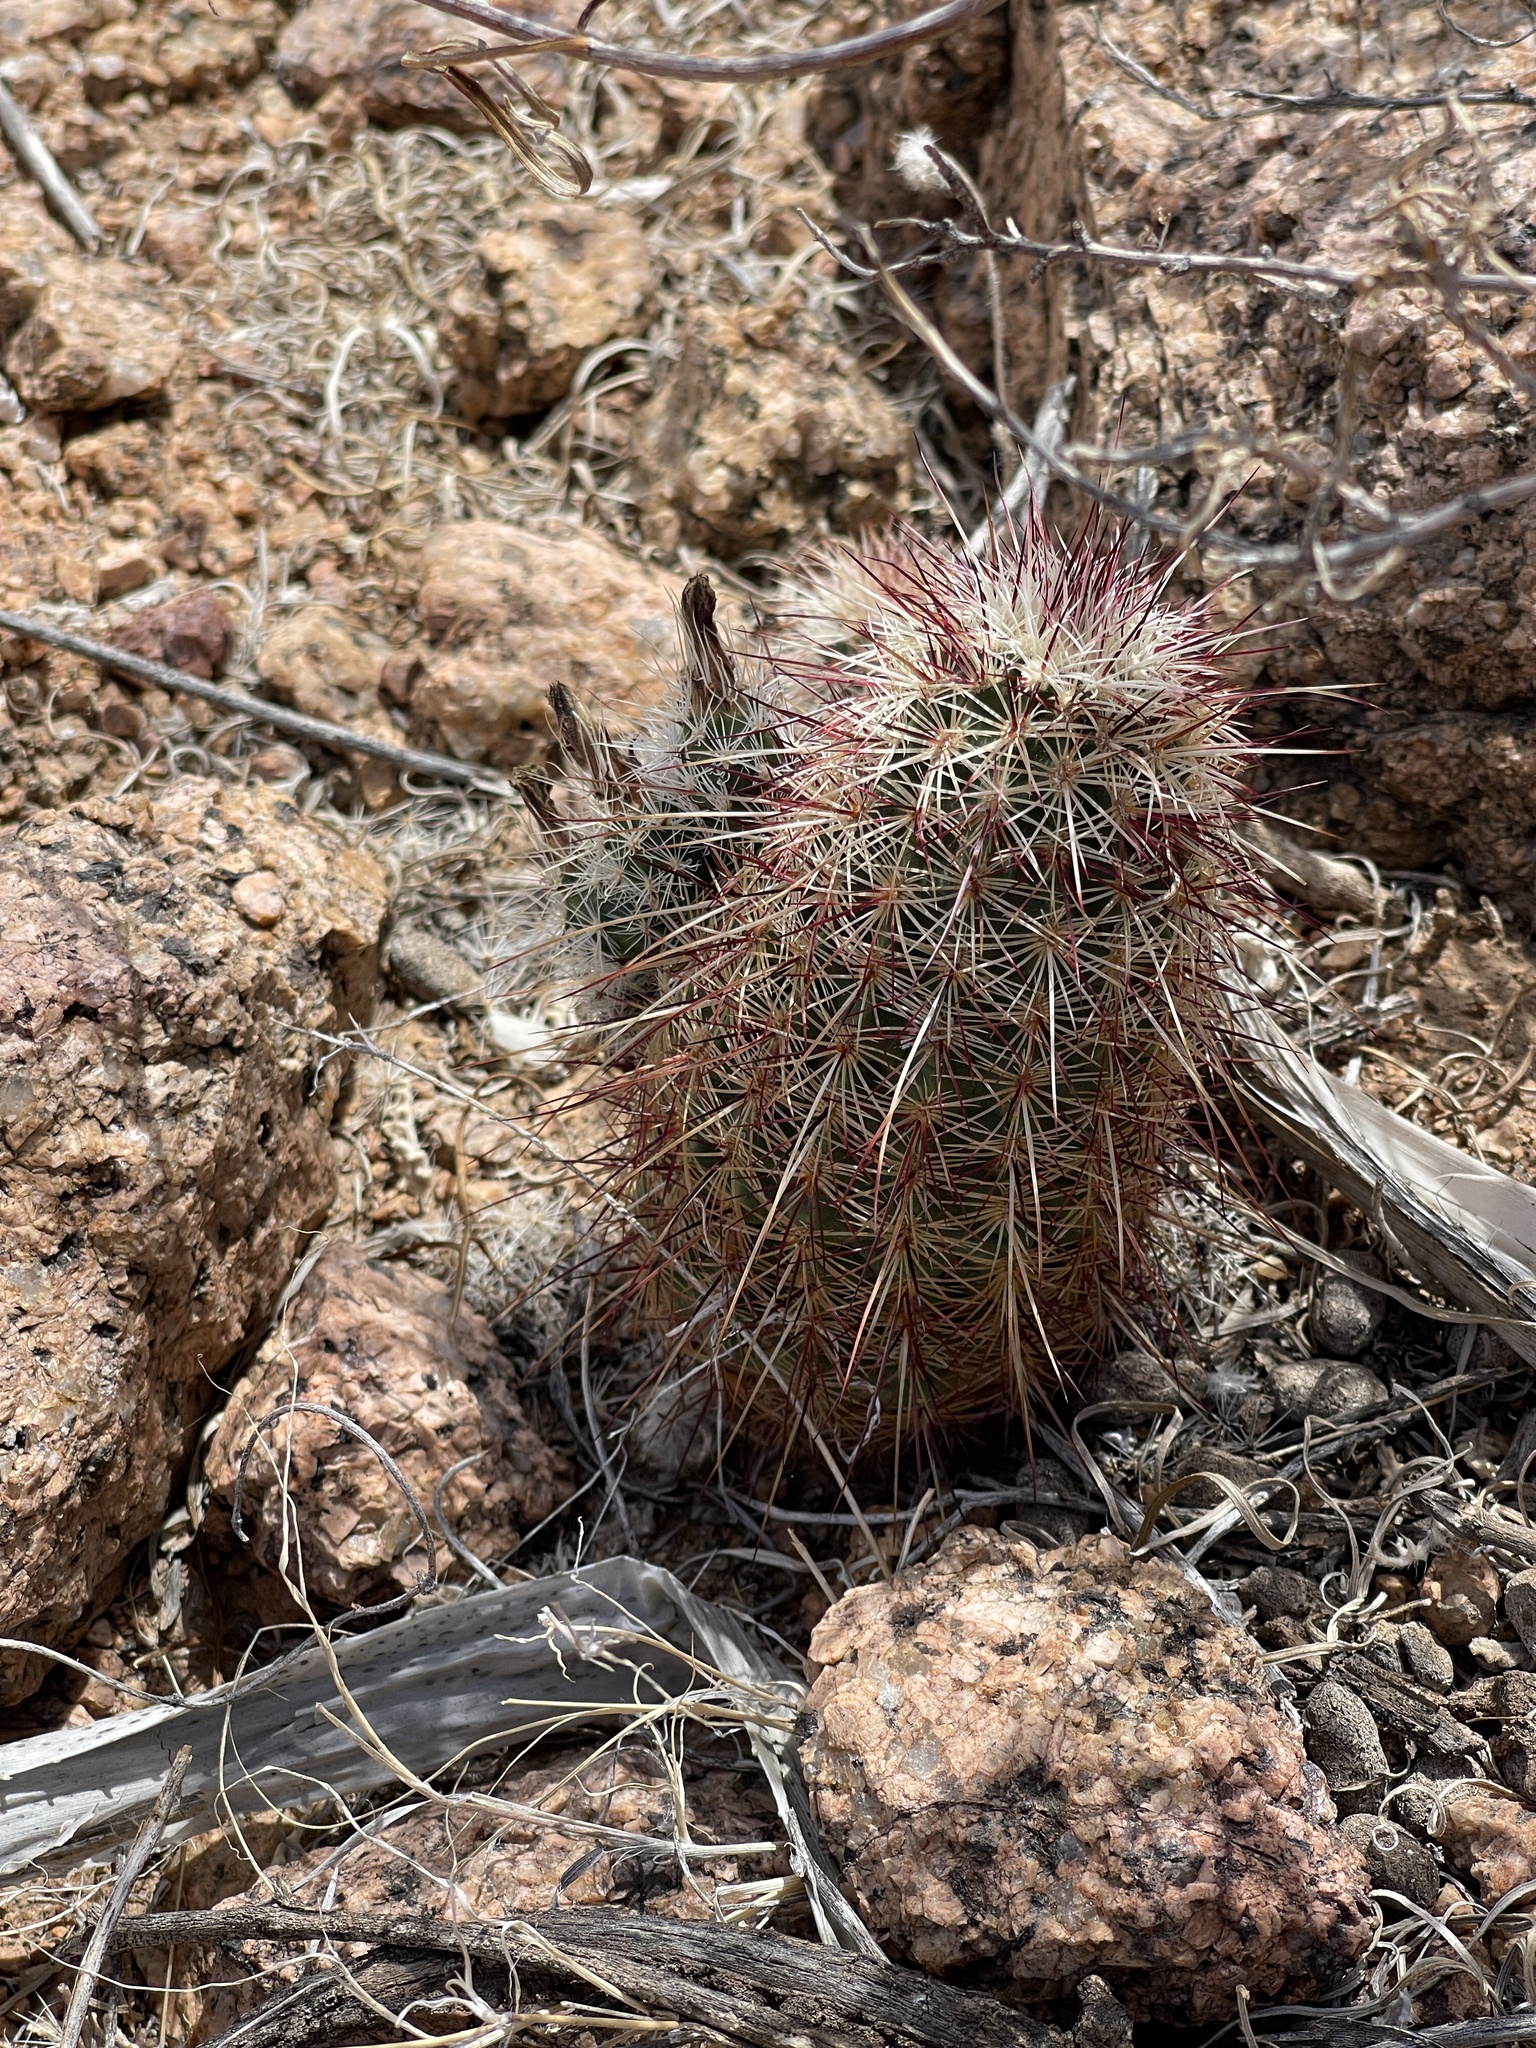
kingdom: Plantae
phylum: Tracheophyta
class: Magnoliopsida
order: Caryophyllales
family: Cactaceae
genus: Echinocereus
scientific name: Echinocereus viridiflorus
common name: Nylon hedgehog cactus
